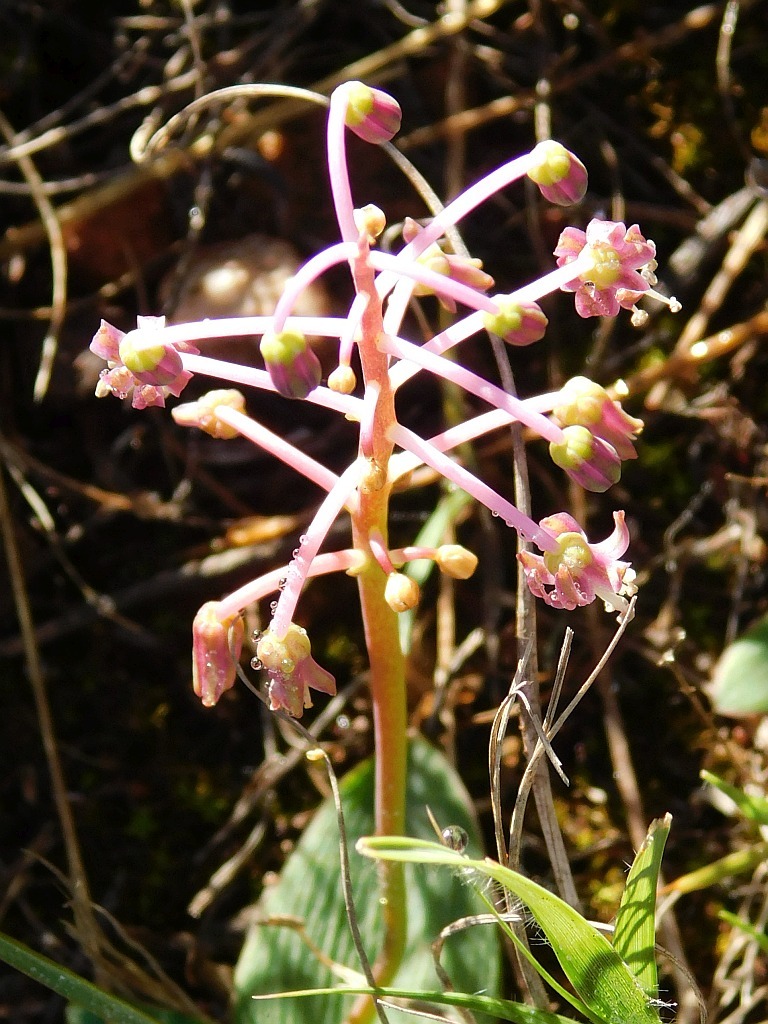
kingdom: Plantae
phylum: Tracheophyta
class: Liliopsida
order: Asparagales
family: Asparagaceae
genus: Ledebouria
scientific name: Ledebouria ovalifolia
